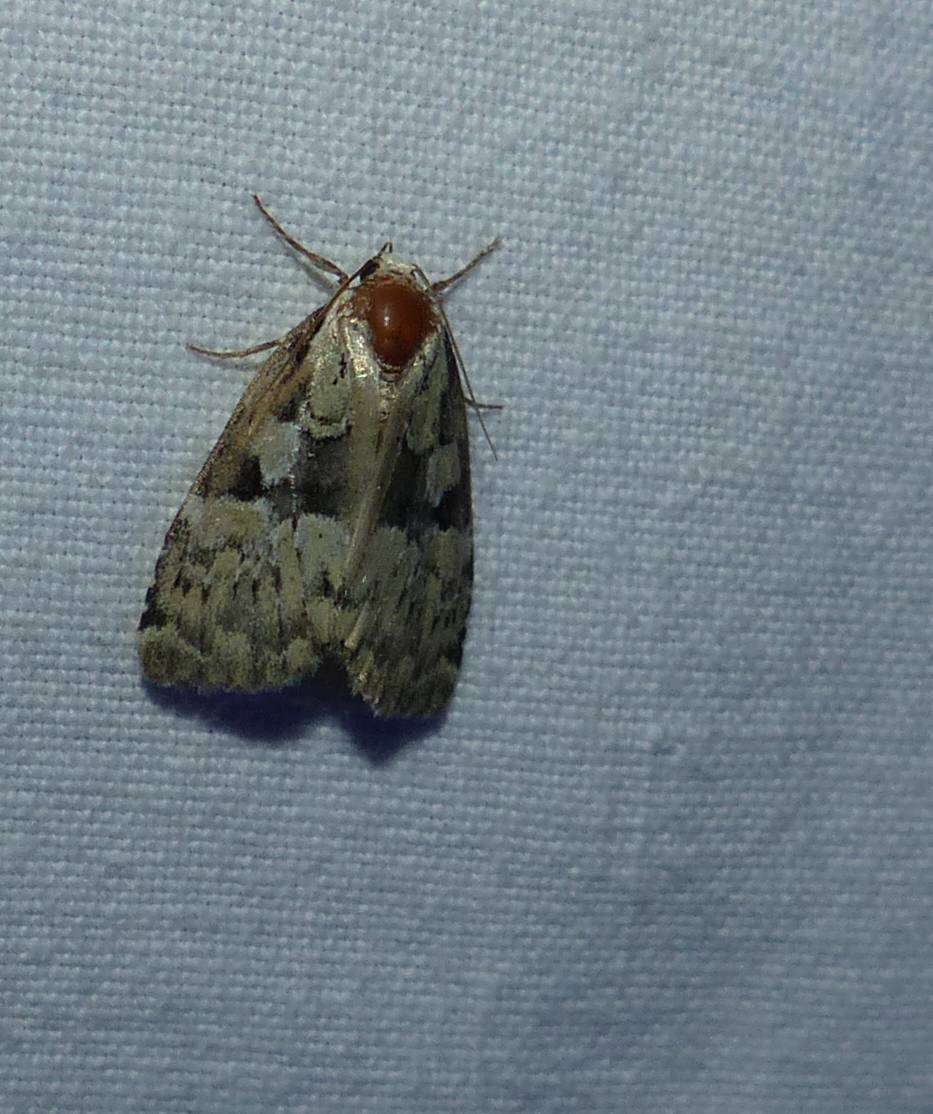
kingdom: Animalia
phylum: Arthropoda
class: Insecta
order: Lepidoptera
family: Noctuidae
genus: Leuconycta
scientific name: Leuconycta lepidula
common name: Marbled-green leuconycta moth
